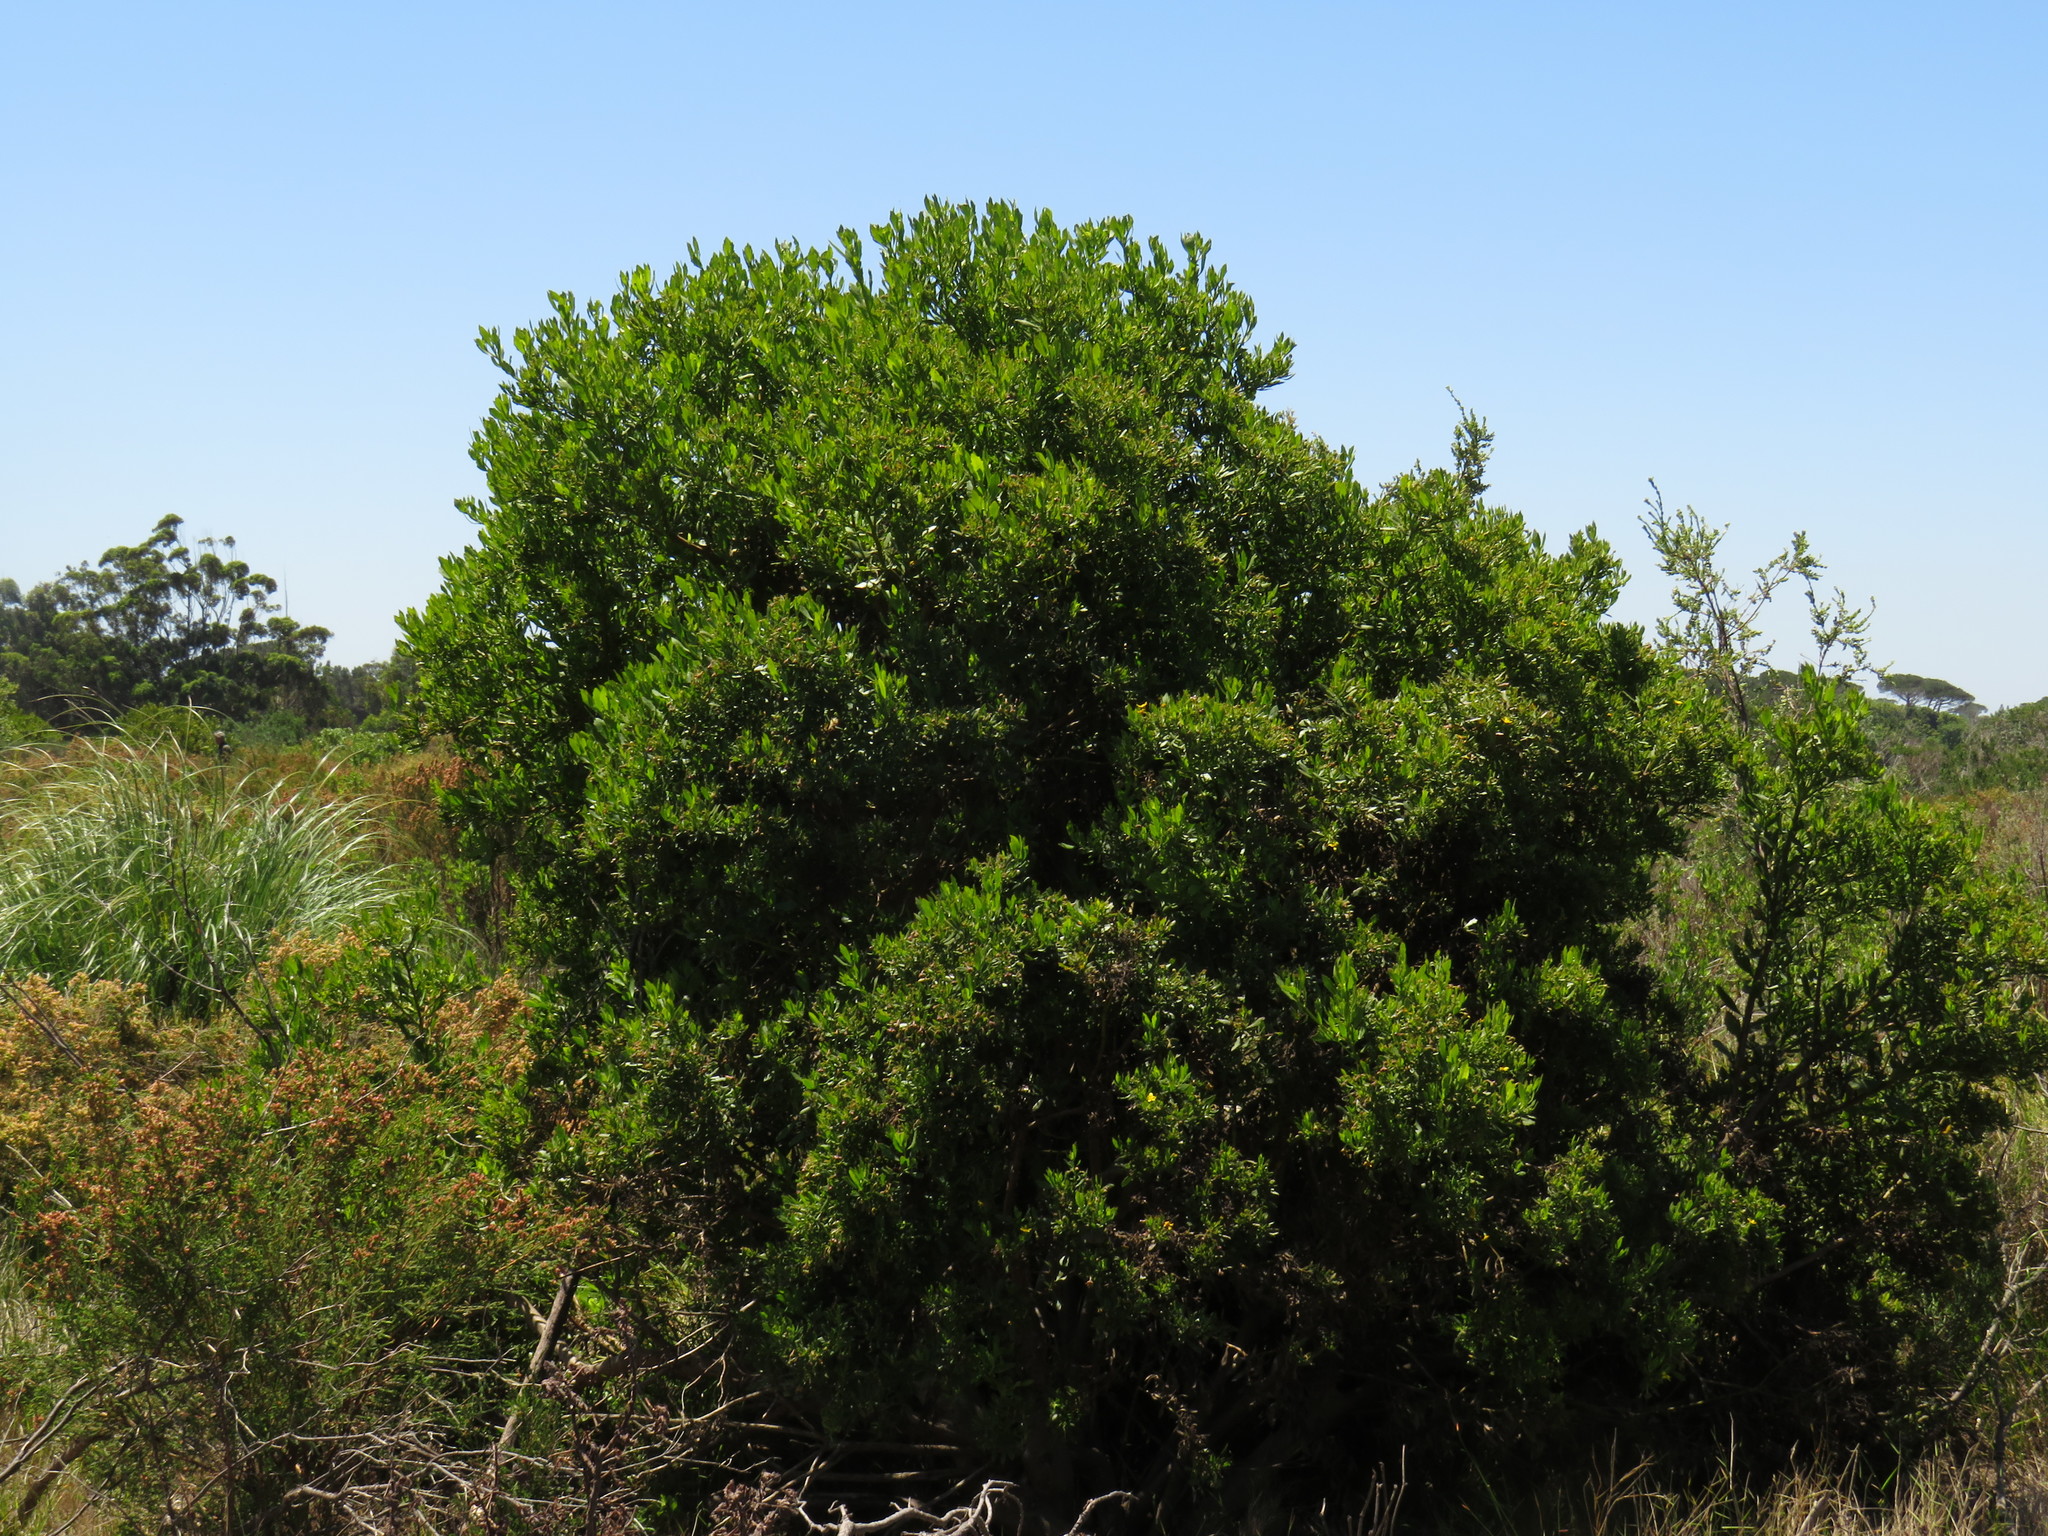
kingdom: Plantae
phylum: Tracheophyta
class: Magnoliopsida
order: Asterales
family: Asteraceae
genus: Osteospermum
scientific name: Osteospermum moniliferum
